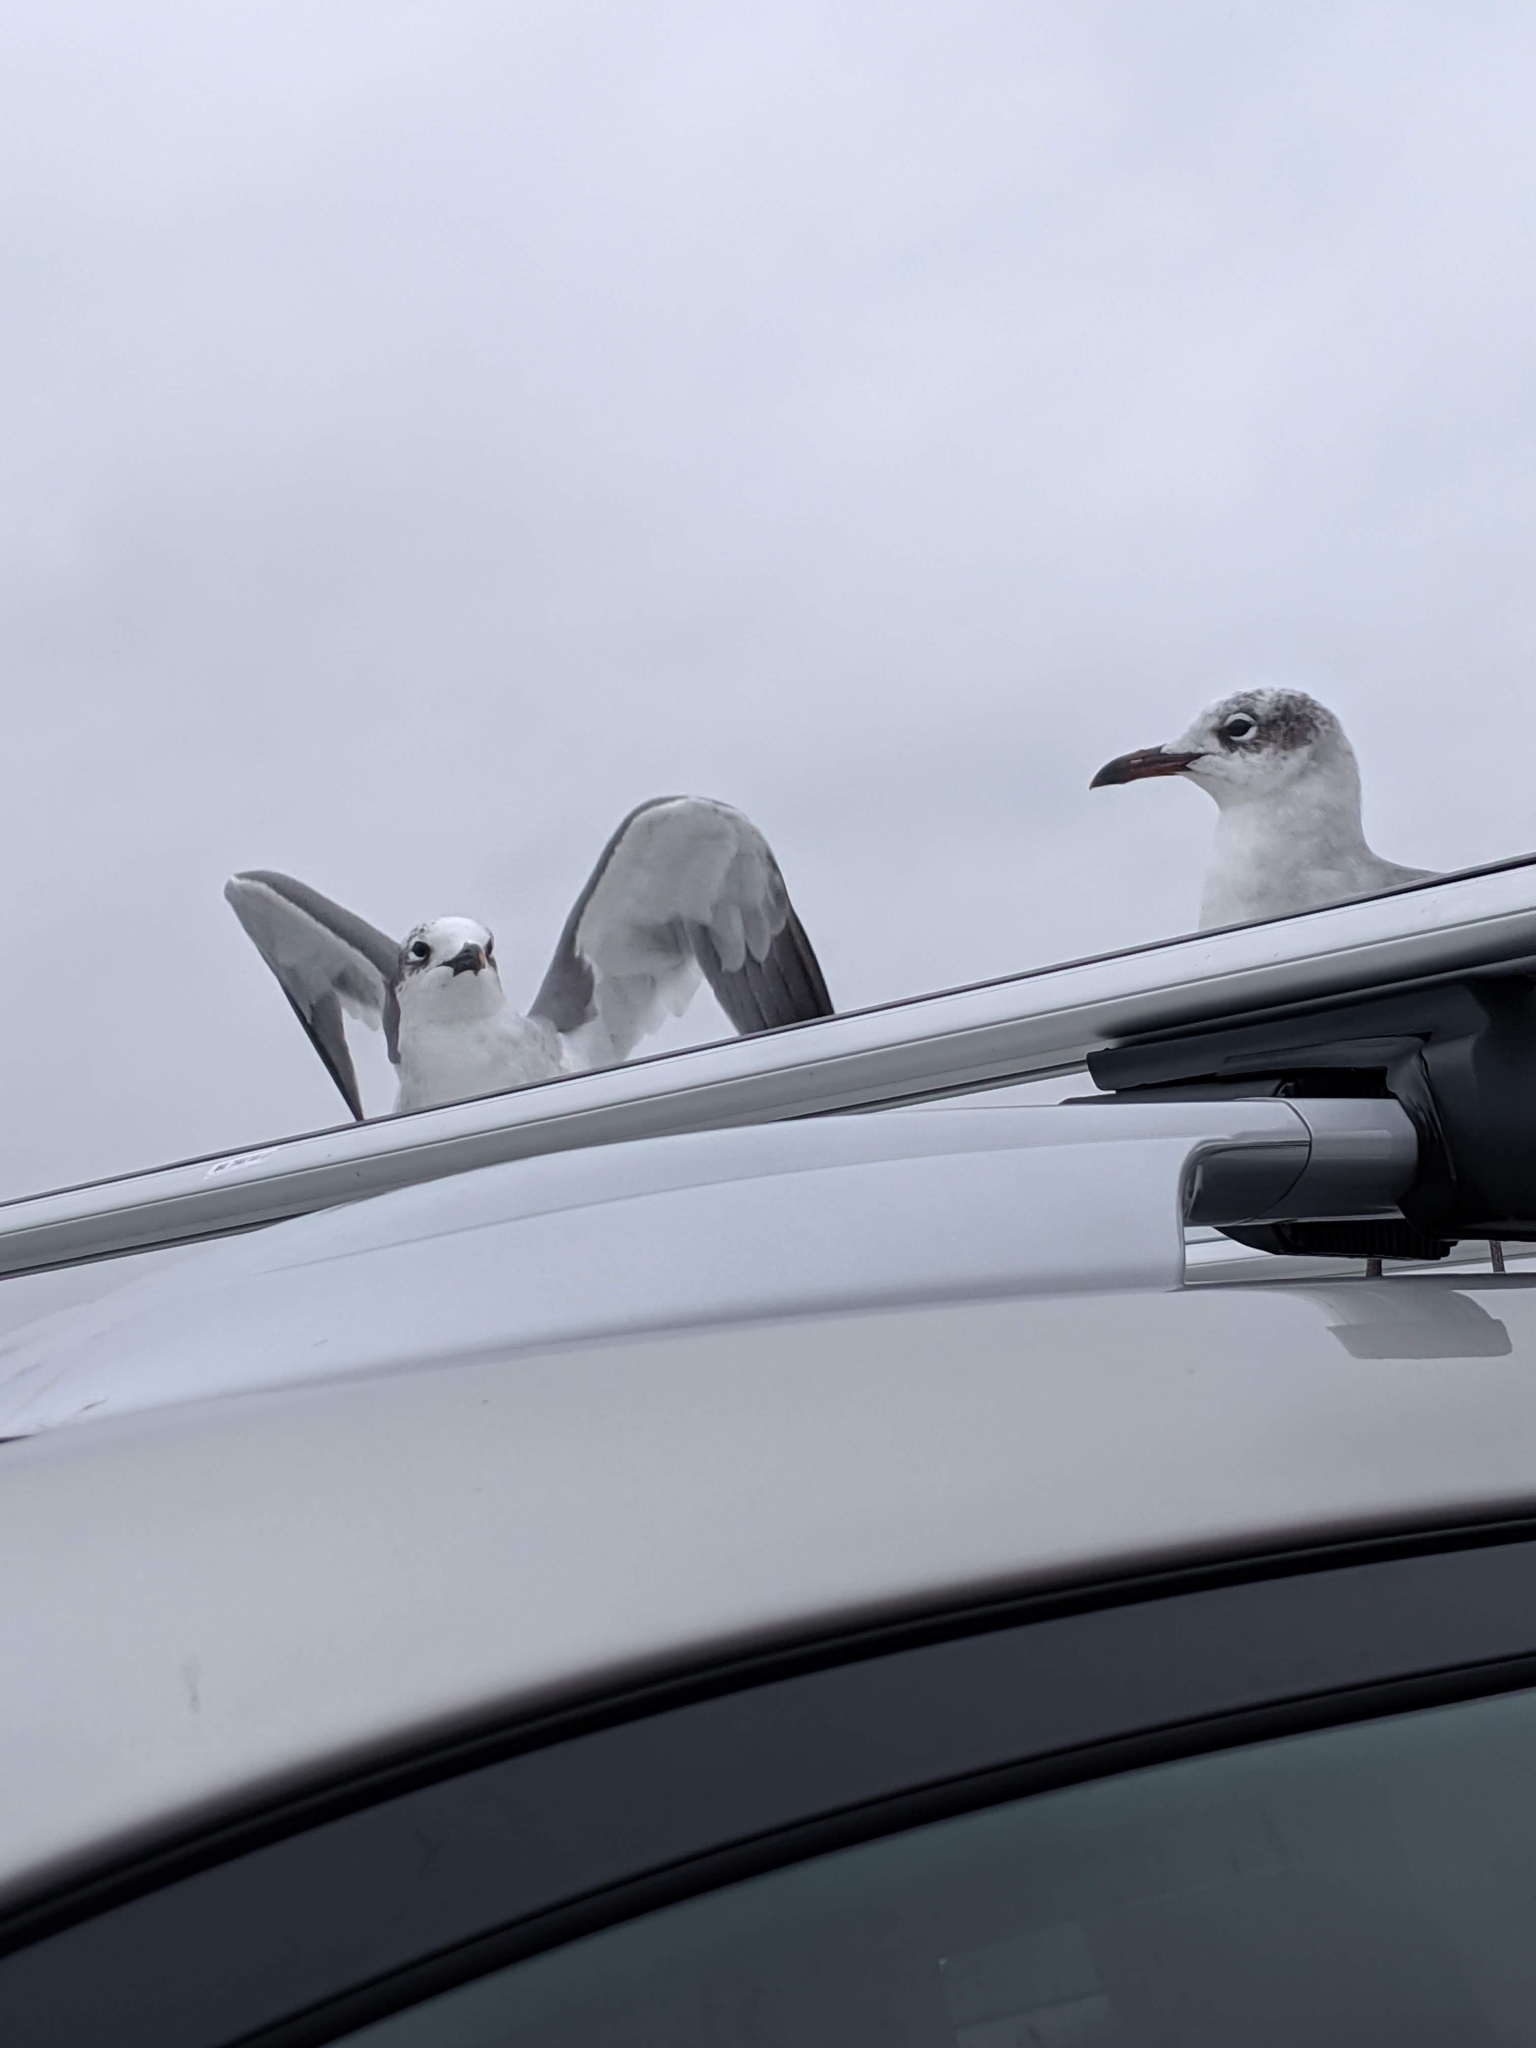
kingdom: Animalia
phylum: Chordata
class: Aves
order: Charadriiformes
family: Laridae
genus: Leucophaeus
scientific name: Leucophaeus atricilla
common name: Laughing gull
